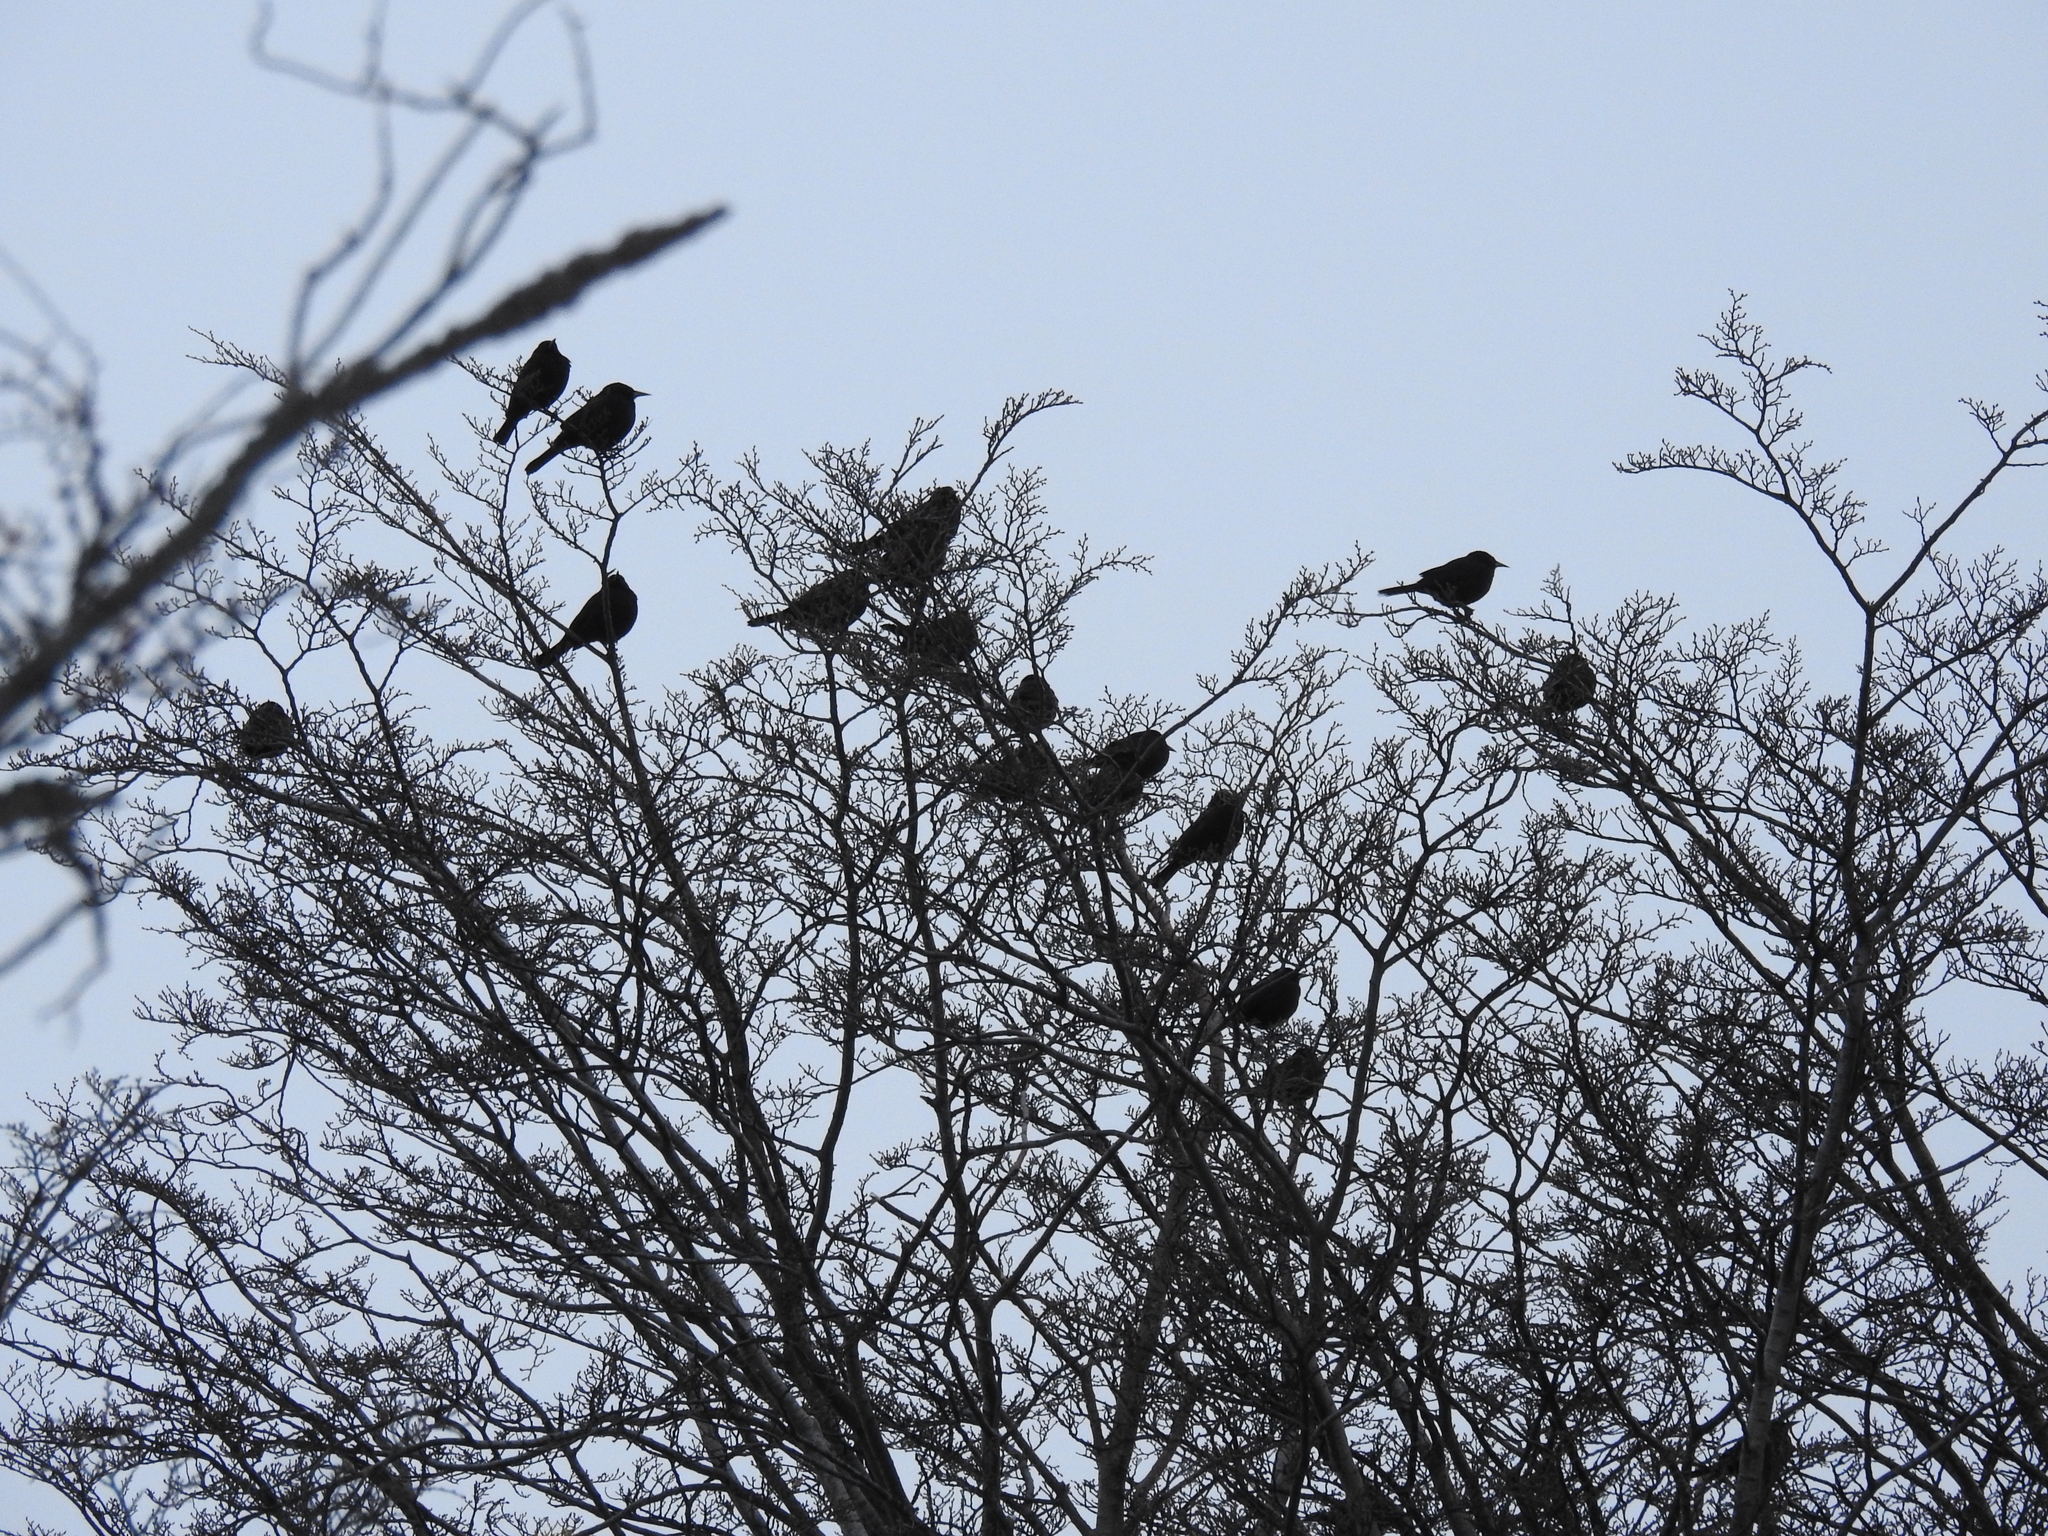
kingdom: Animalia
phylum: Chordata
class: Aves
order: Passeriformes
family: Icteridae
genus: Curaeus
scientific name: Curaeus curaeus
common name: Austral blackbird
